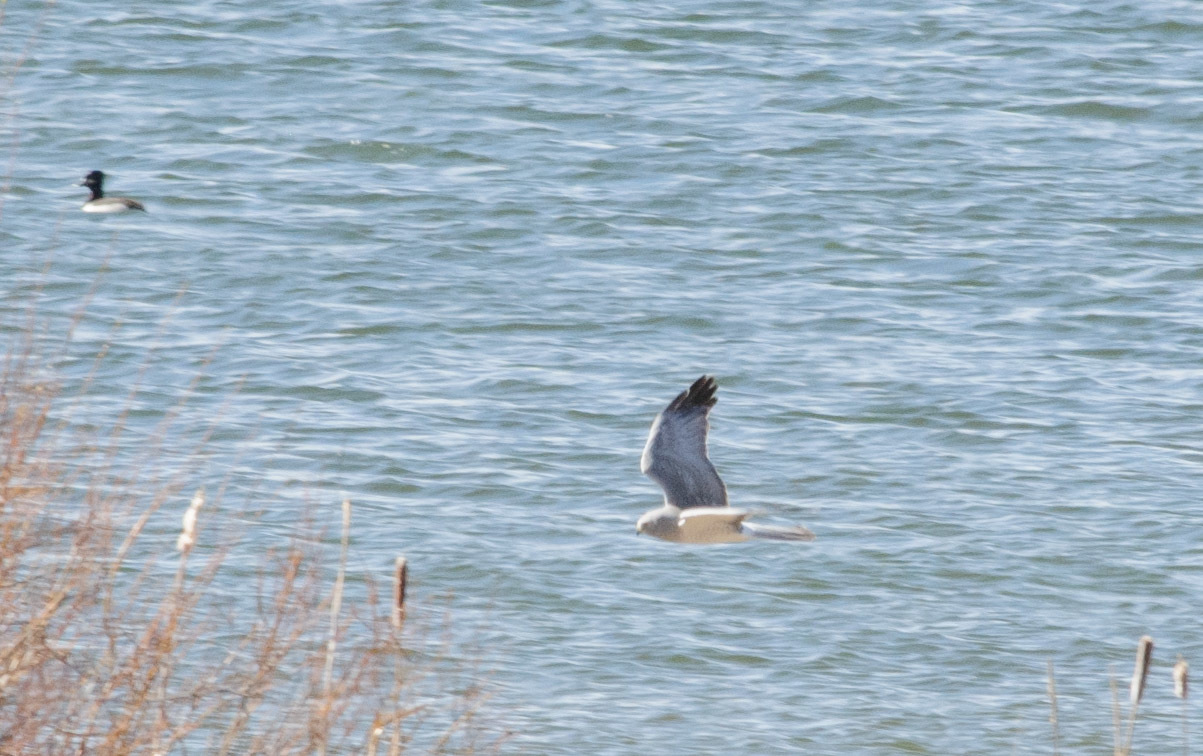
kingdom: Animalia
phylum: Chordata
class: Aves
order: Accipitriformes
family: Accipitridae
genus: Circus
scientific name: Circus cyaneus
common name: Hen harrier
